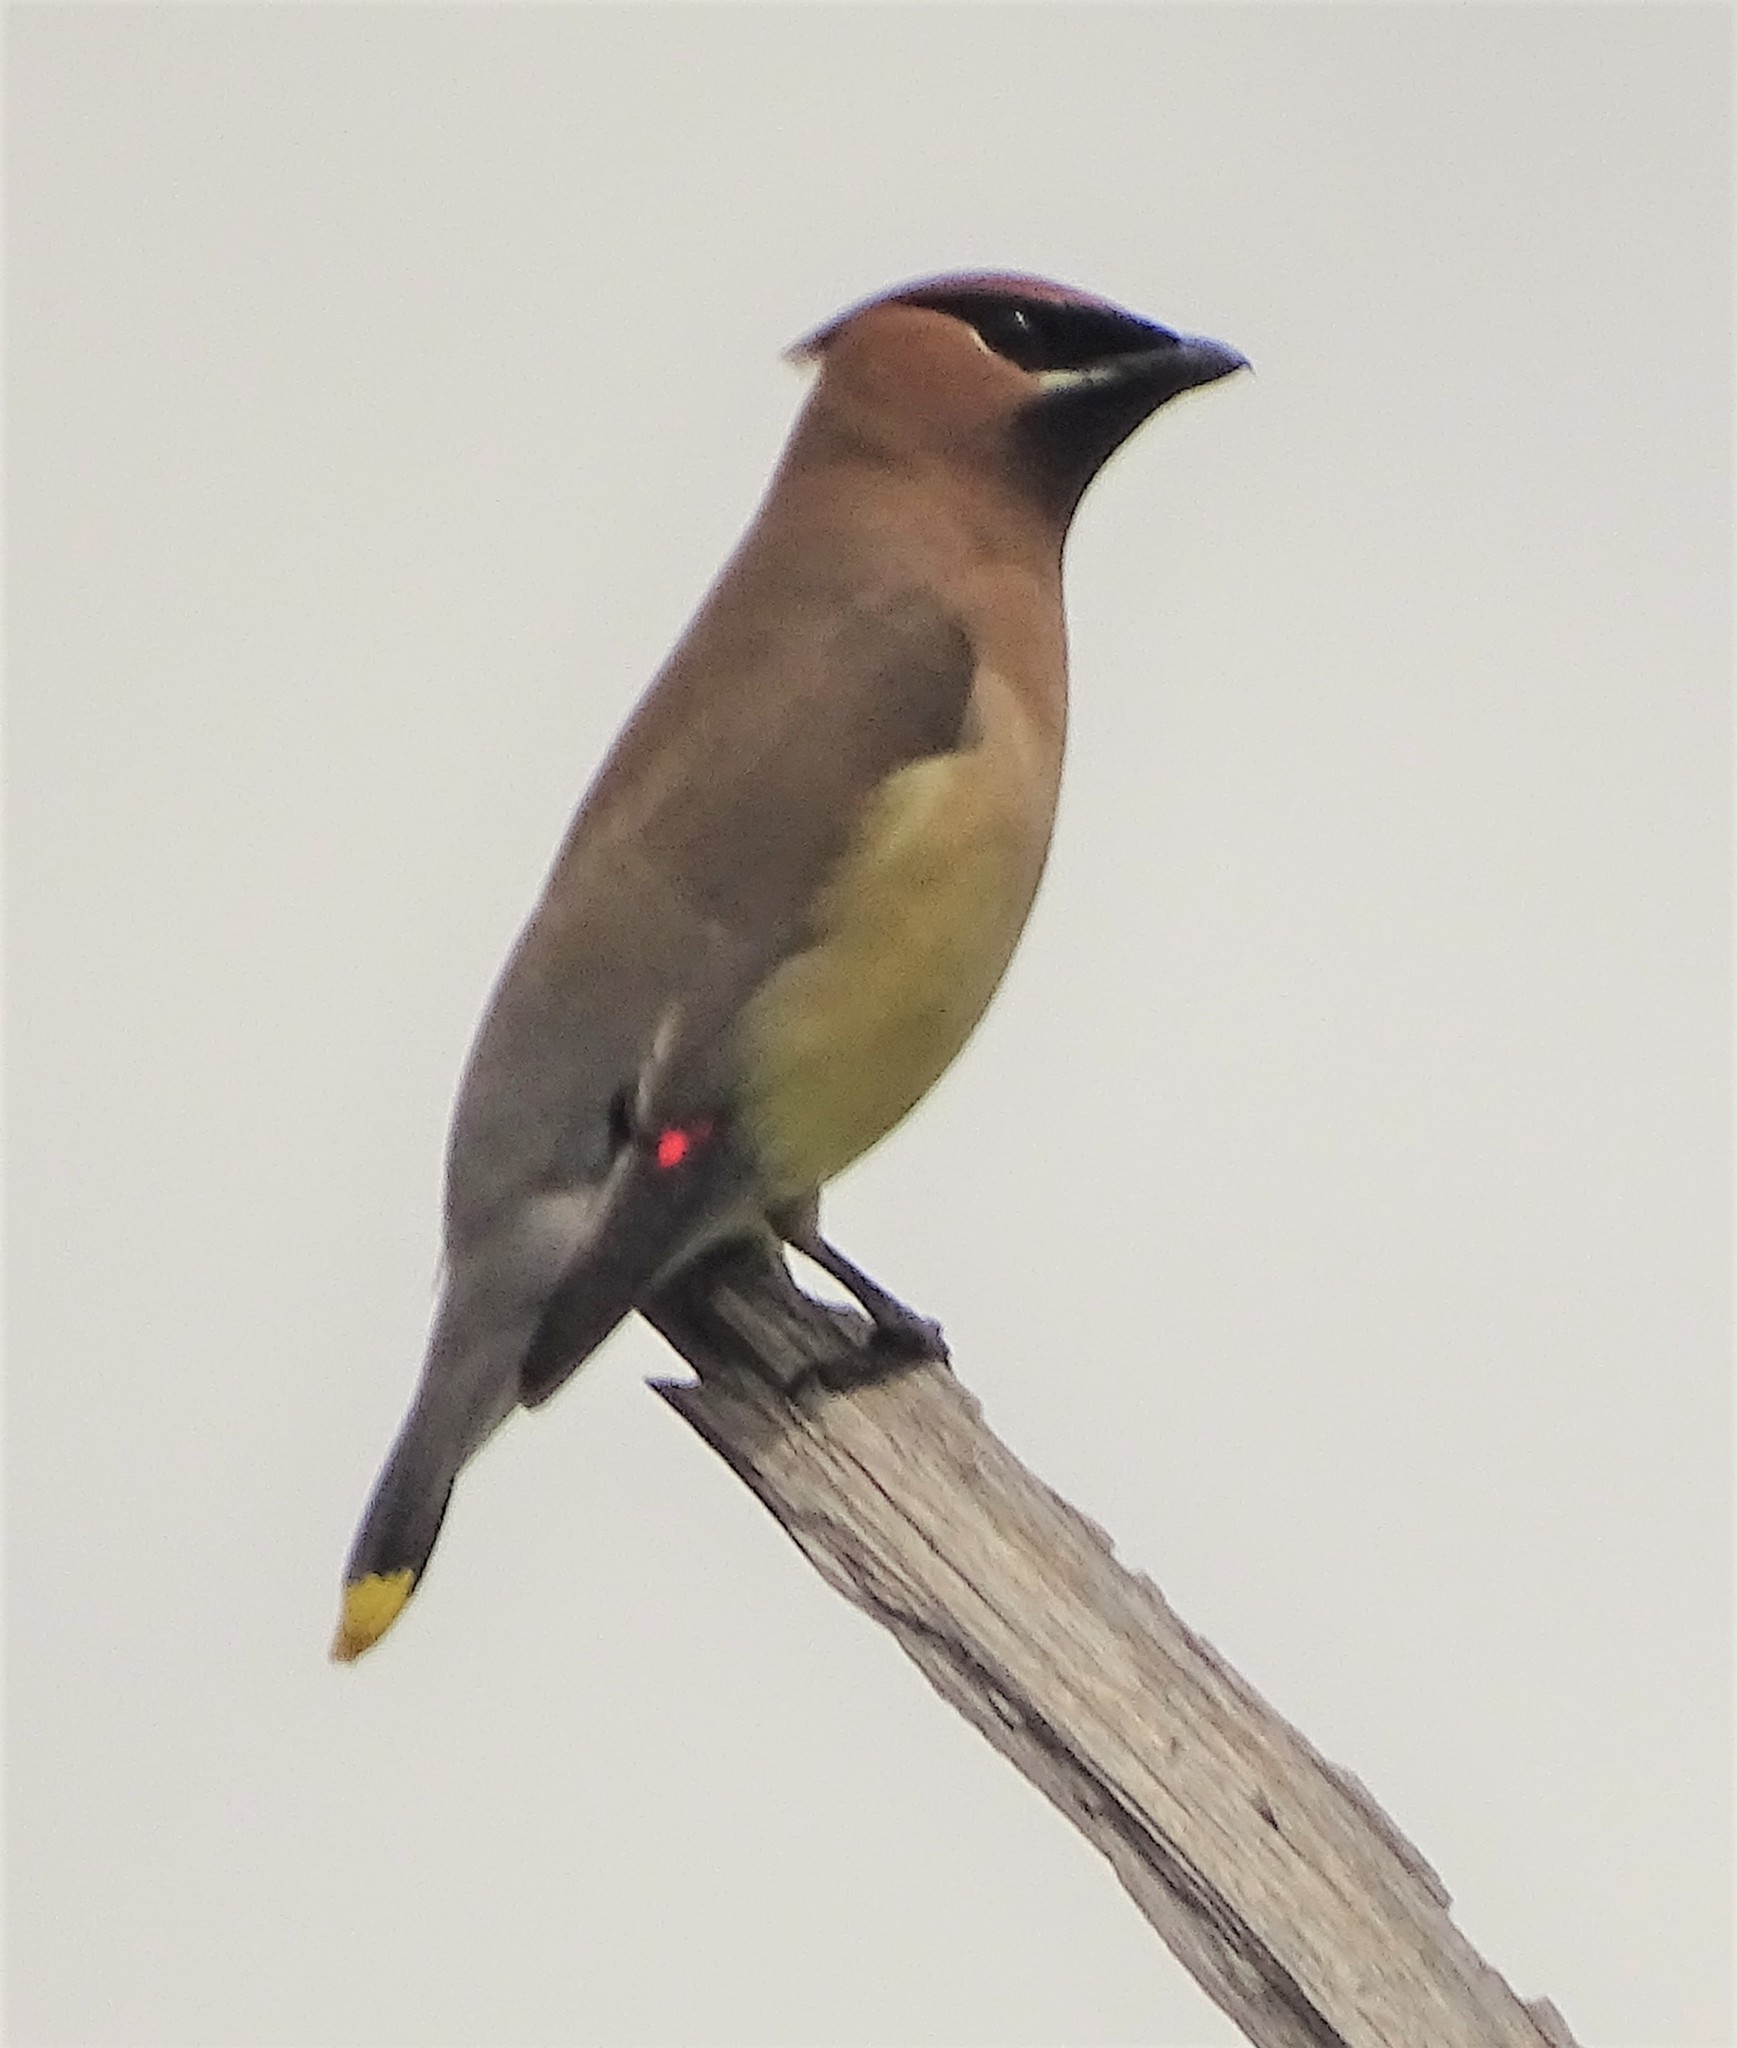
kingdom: Animalia
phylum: Chordata
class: Aves
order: Passeriformes
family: Bombycillidae
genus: Bombycilla
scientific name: Bombycilla cedrorum
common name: Cedar waxwing
